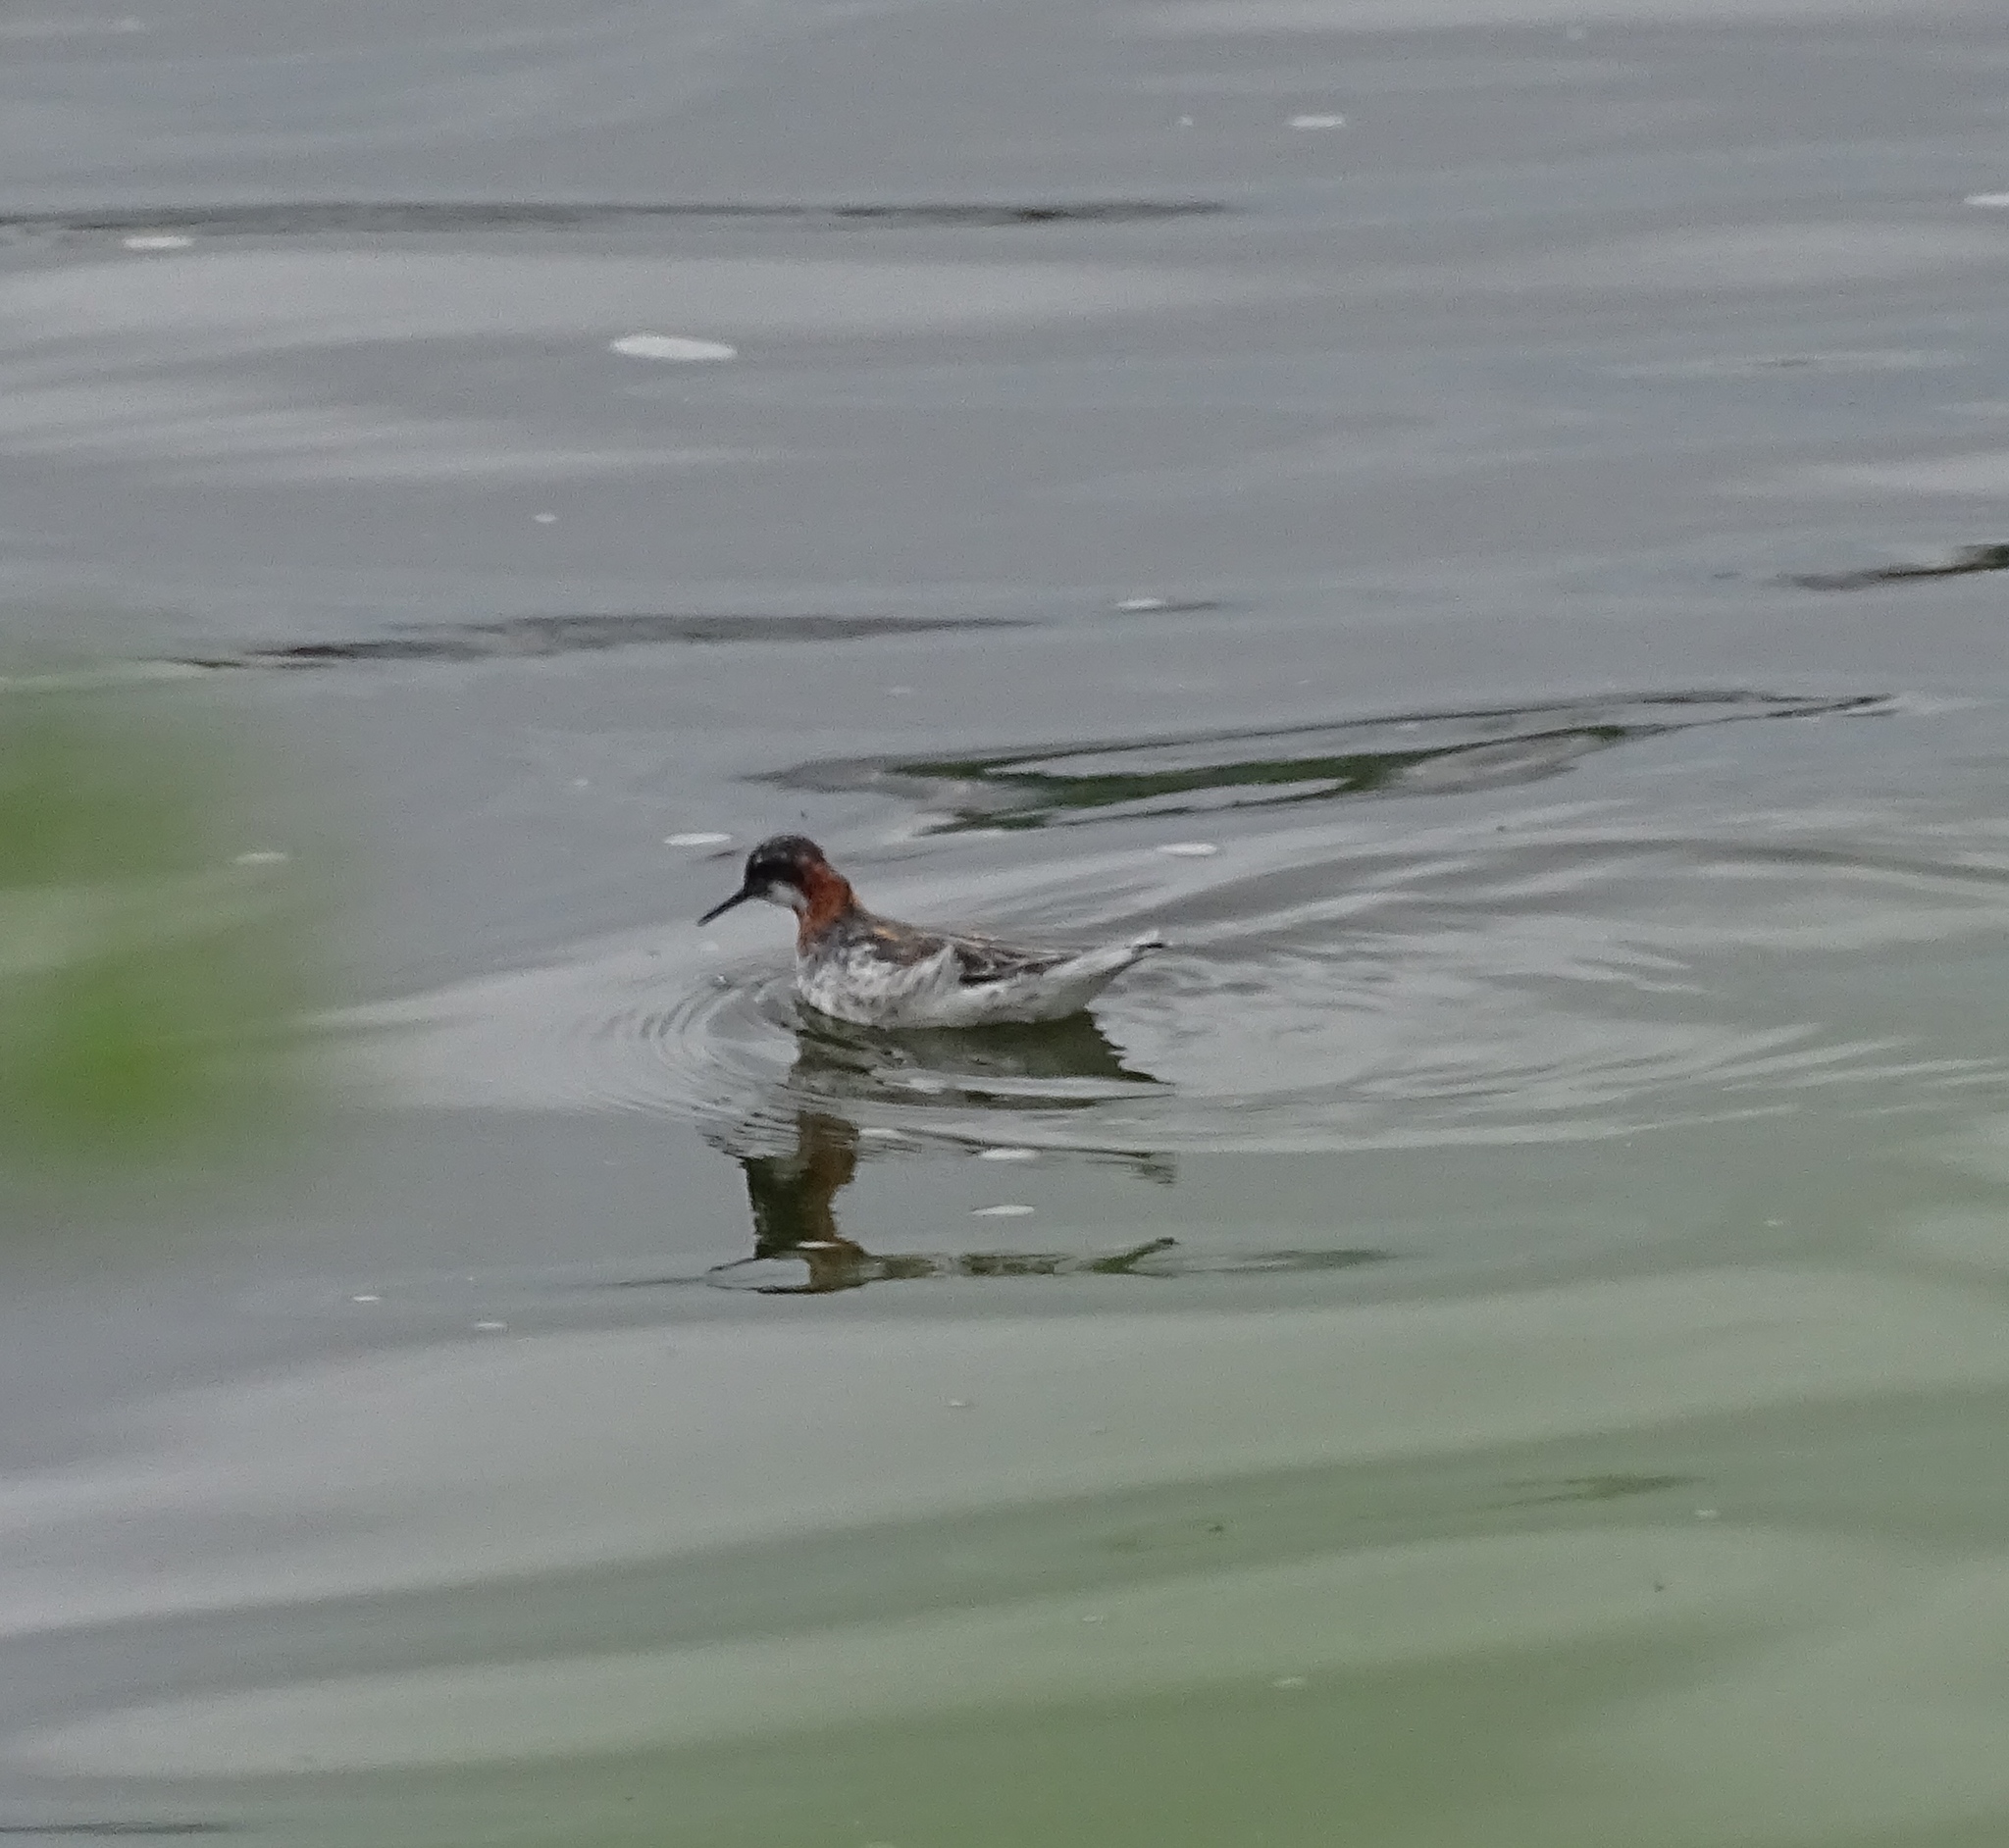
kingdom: Animalia
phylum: Chordata
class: Aves
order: Charadriiformes
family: Scolopacidae
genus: Phalaropus
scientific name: Phalaropus lobatus
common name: Red-necked phalarope
